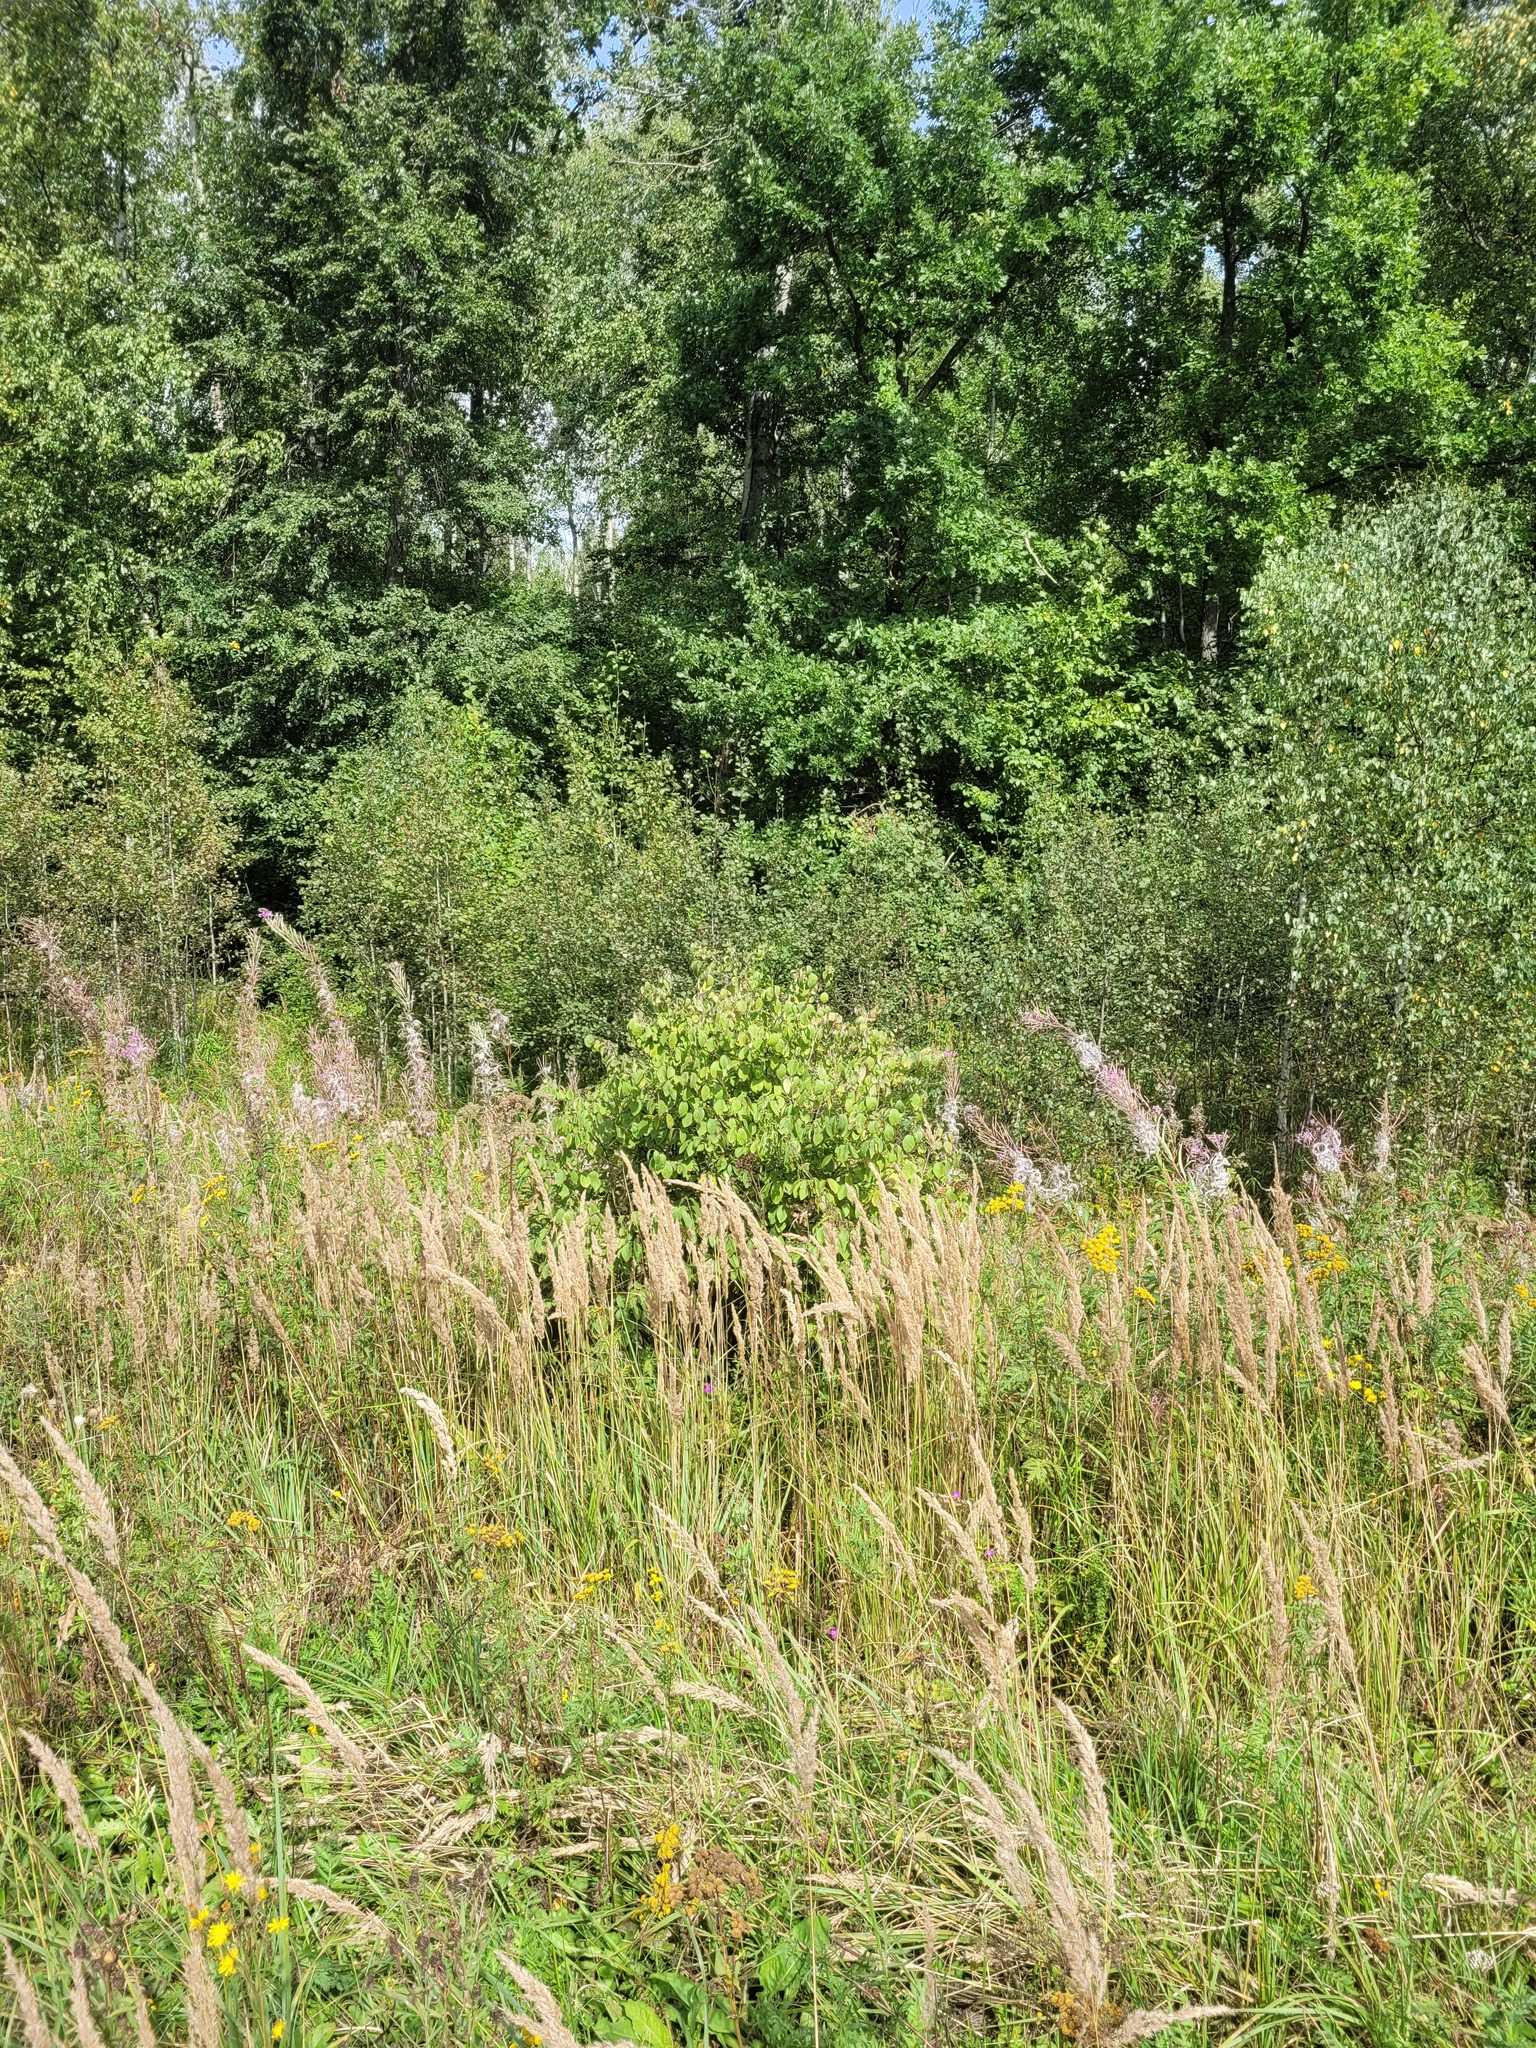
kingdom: Plantae
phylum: Tracheophyta
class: Magnoliopsida
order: Dipsacales
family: Caprifoliaceae
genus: Lonicera
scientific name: Lonicera xylosteum
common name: Fly honeysuckle
